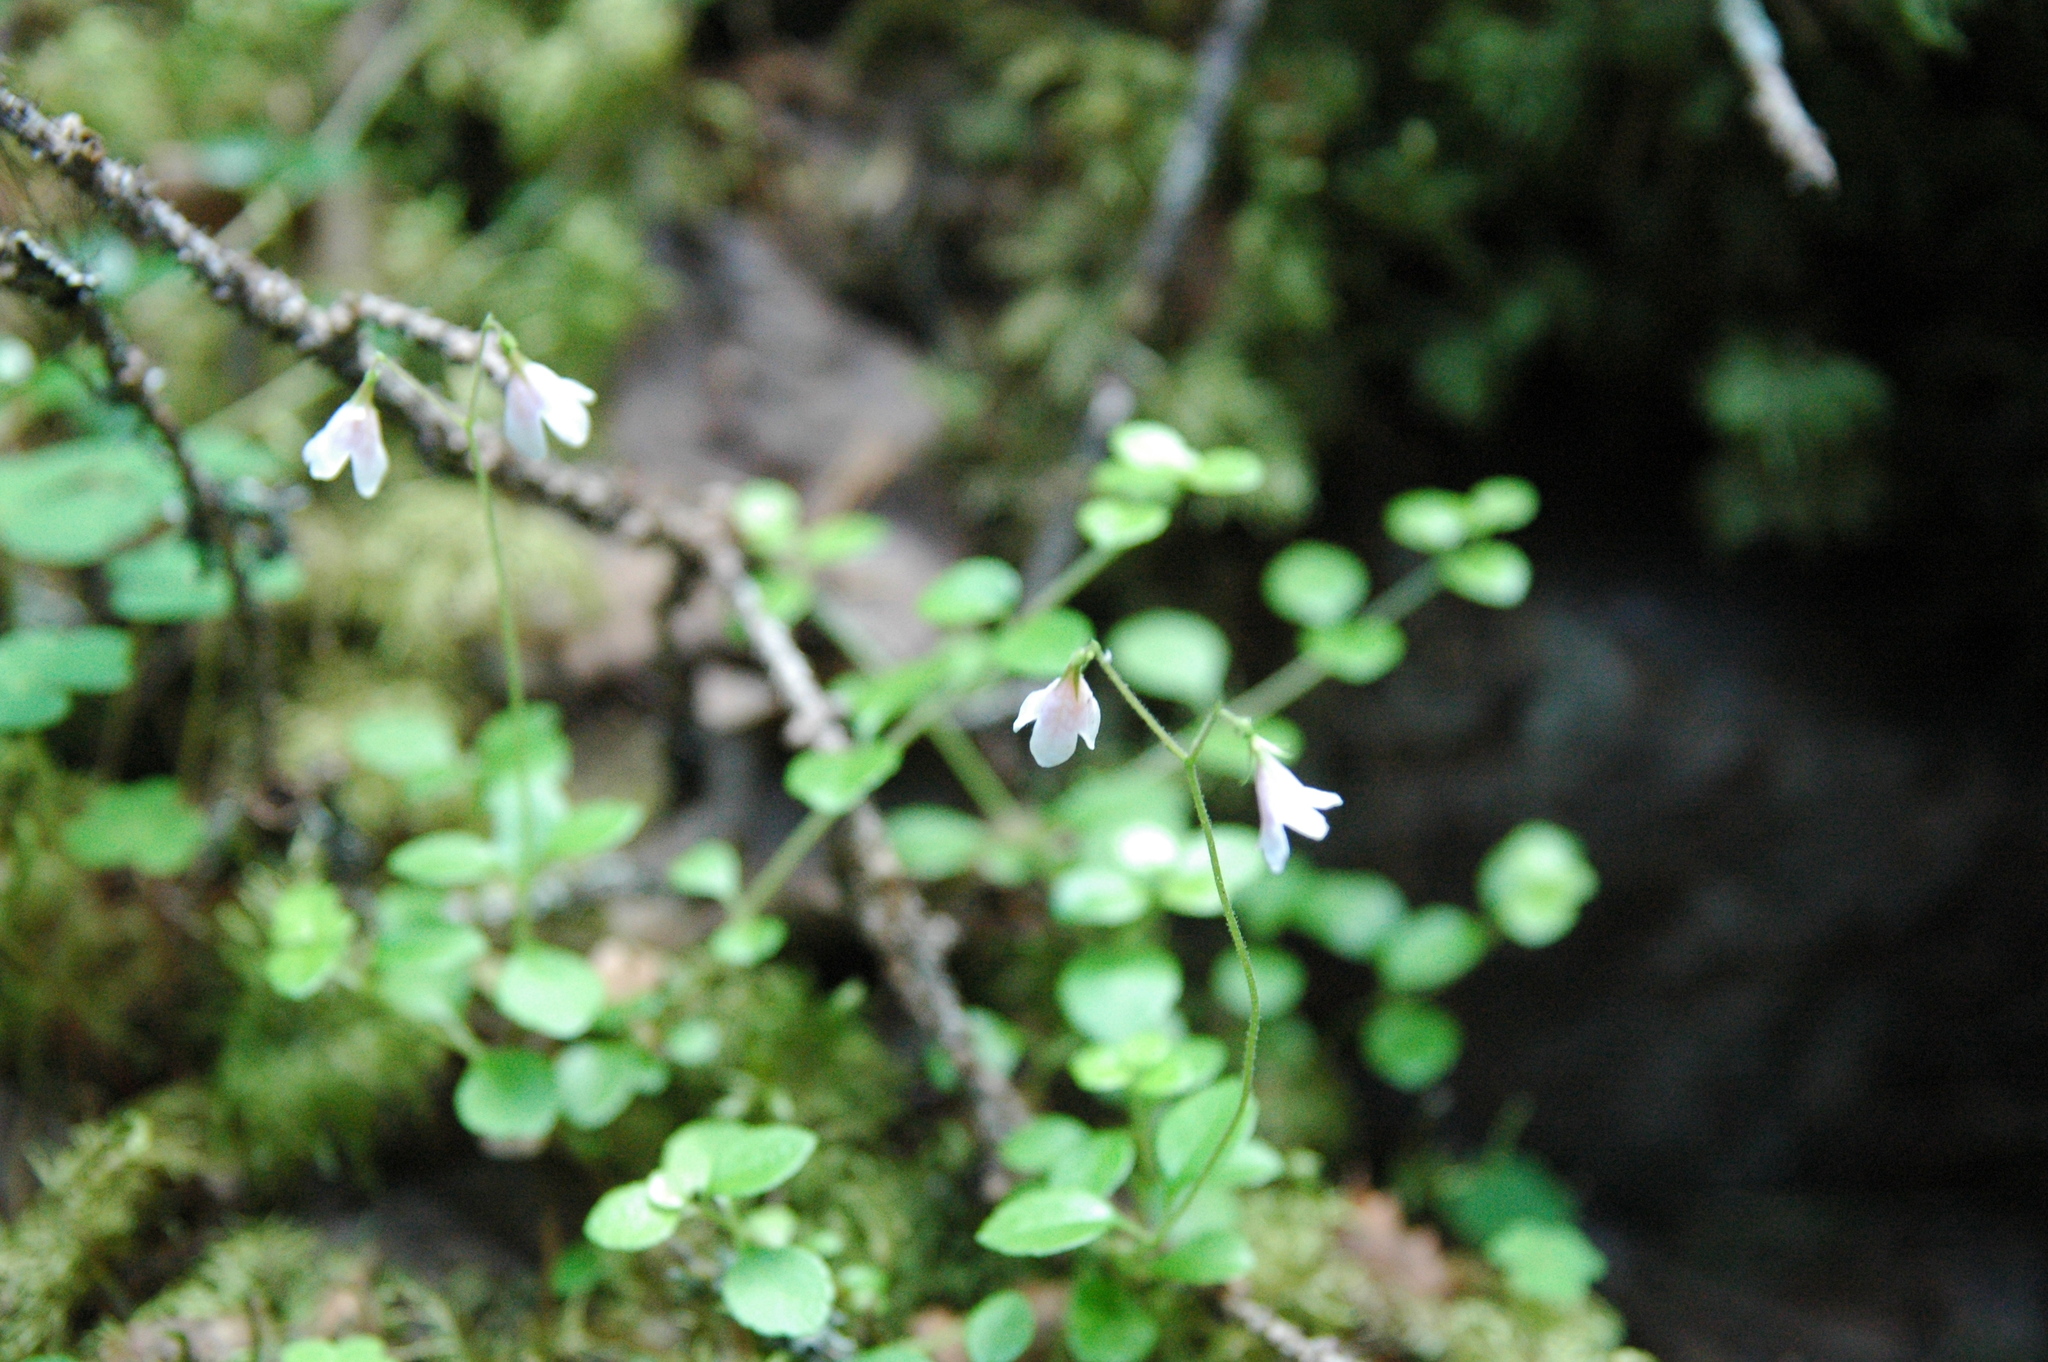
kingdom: Plantae
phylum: Tracheophyta
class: Magnoliopsida
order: Dipsacales
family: Caprifoliaceae
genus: Linnaea
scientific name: Linnaea borealis
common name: Twinflower
